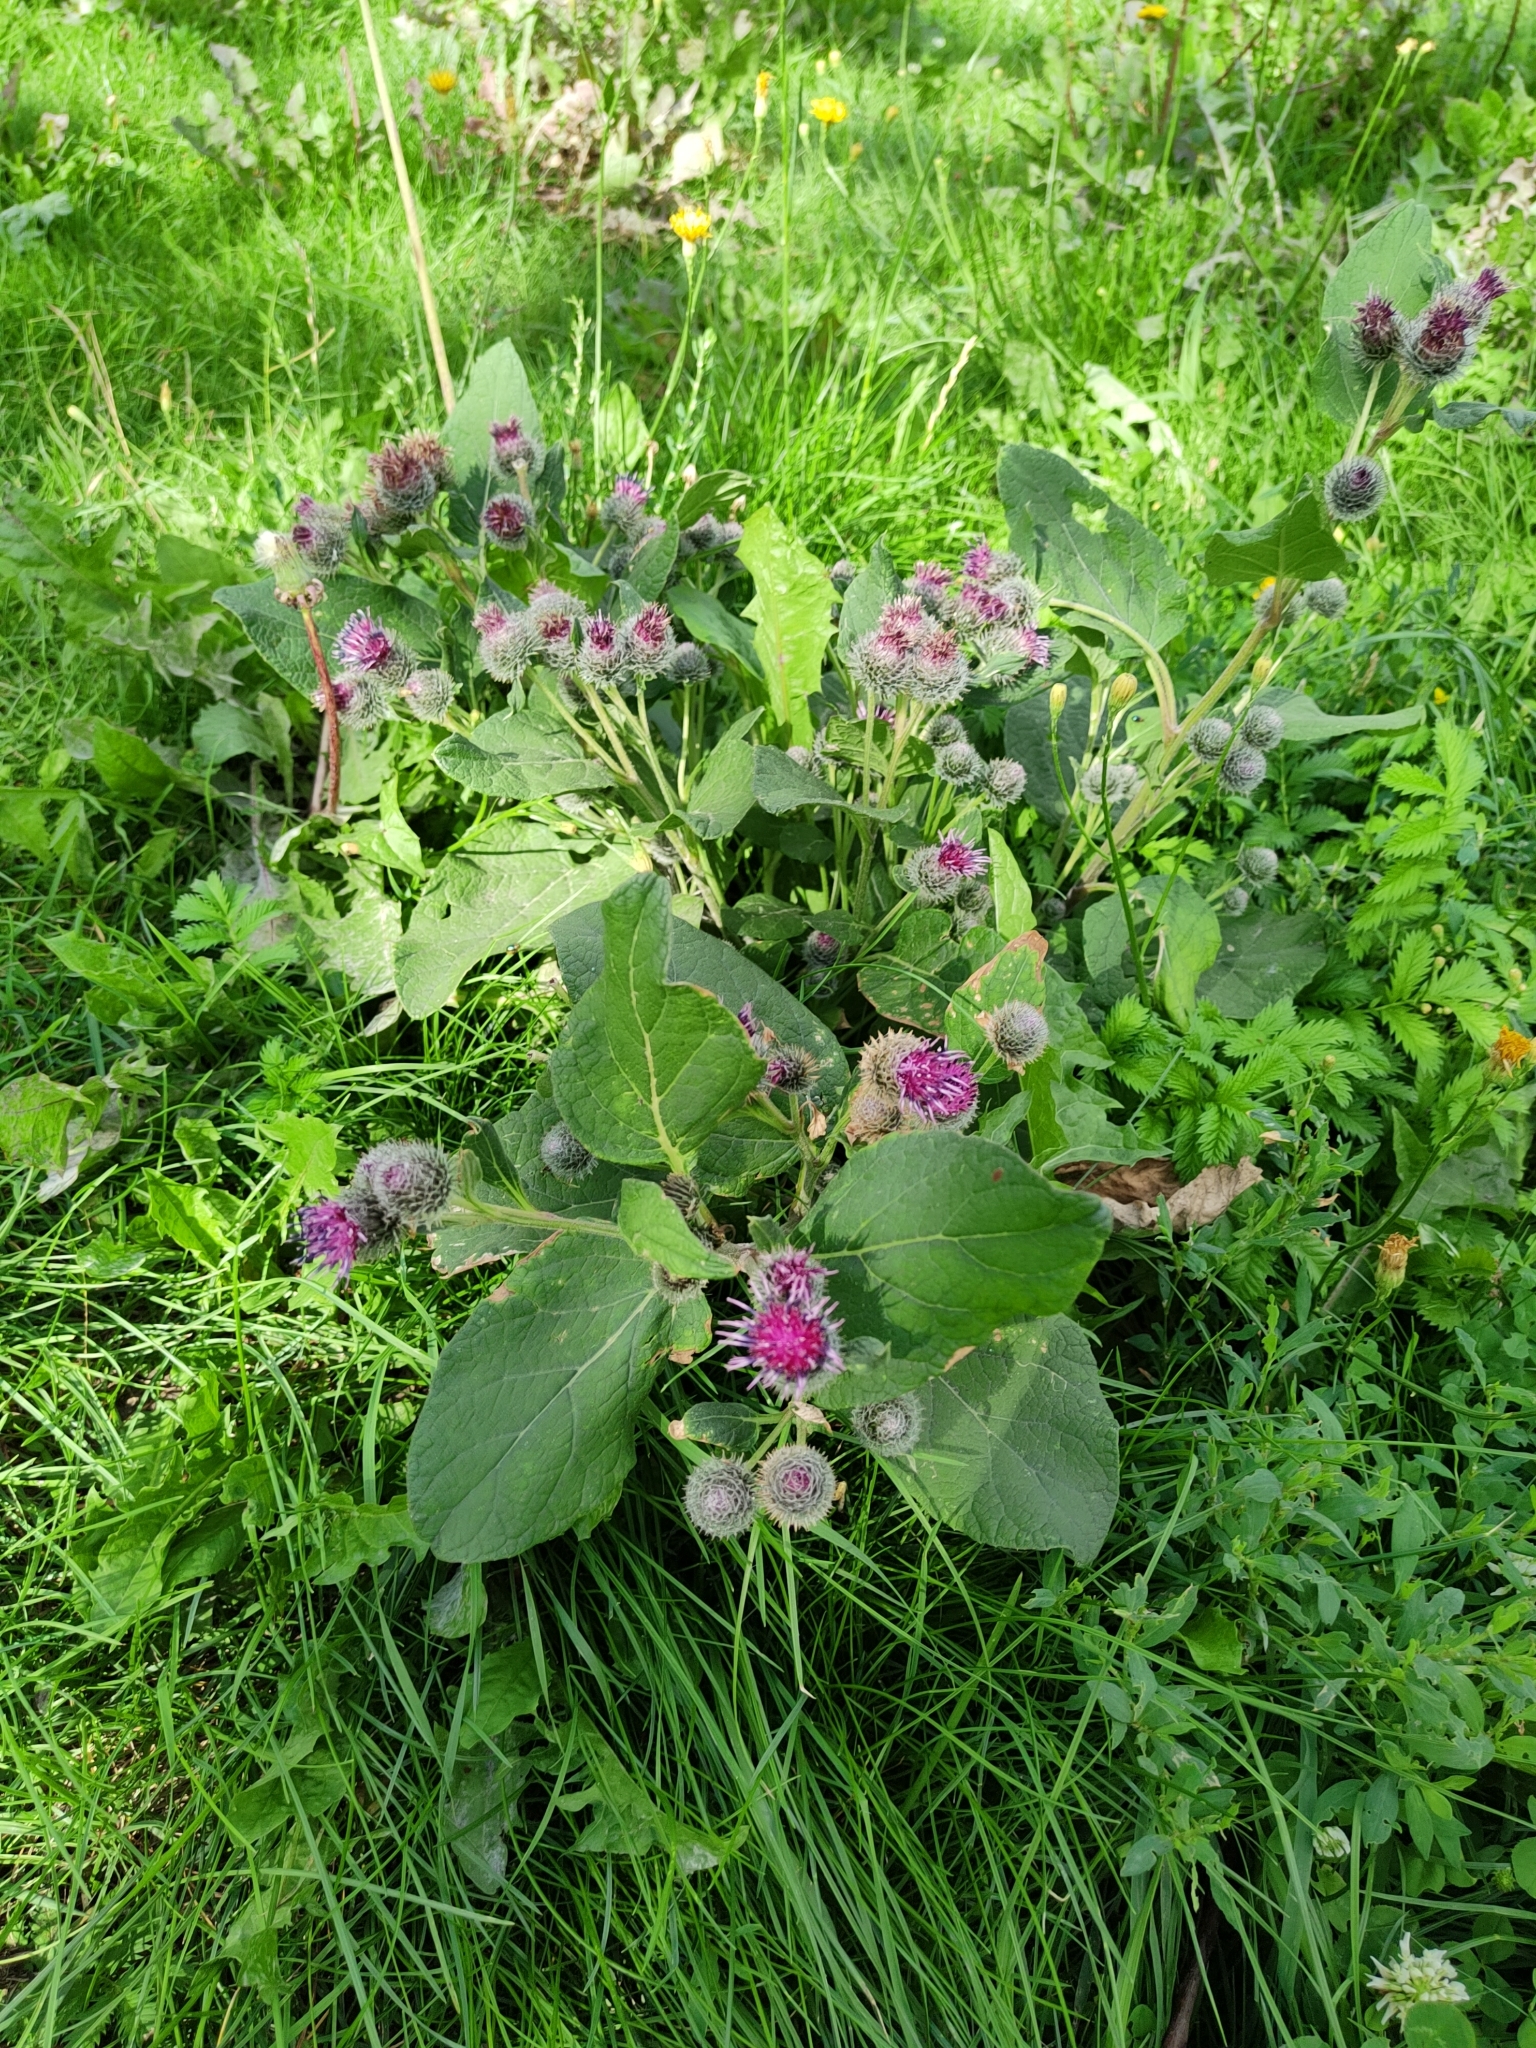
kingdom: Plantae
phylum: Tracheophyta
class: Magnoliopsida
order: Asterales
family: Asteraceae
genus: Arctium
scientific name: Arctium tomentosum
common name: Woolly burdock
